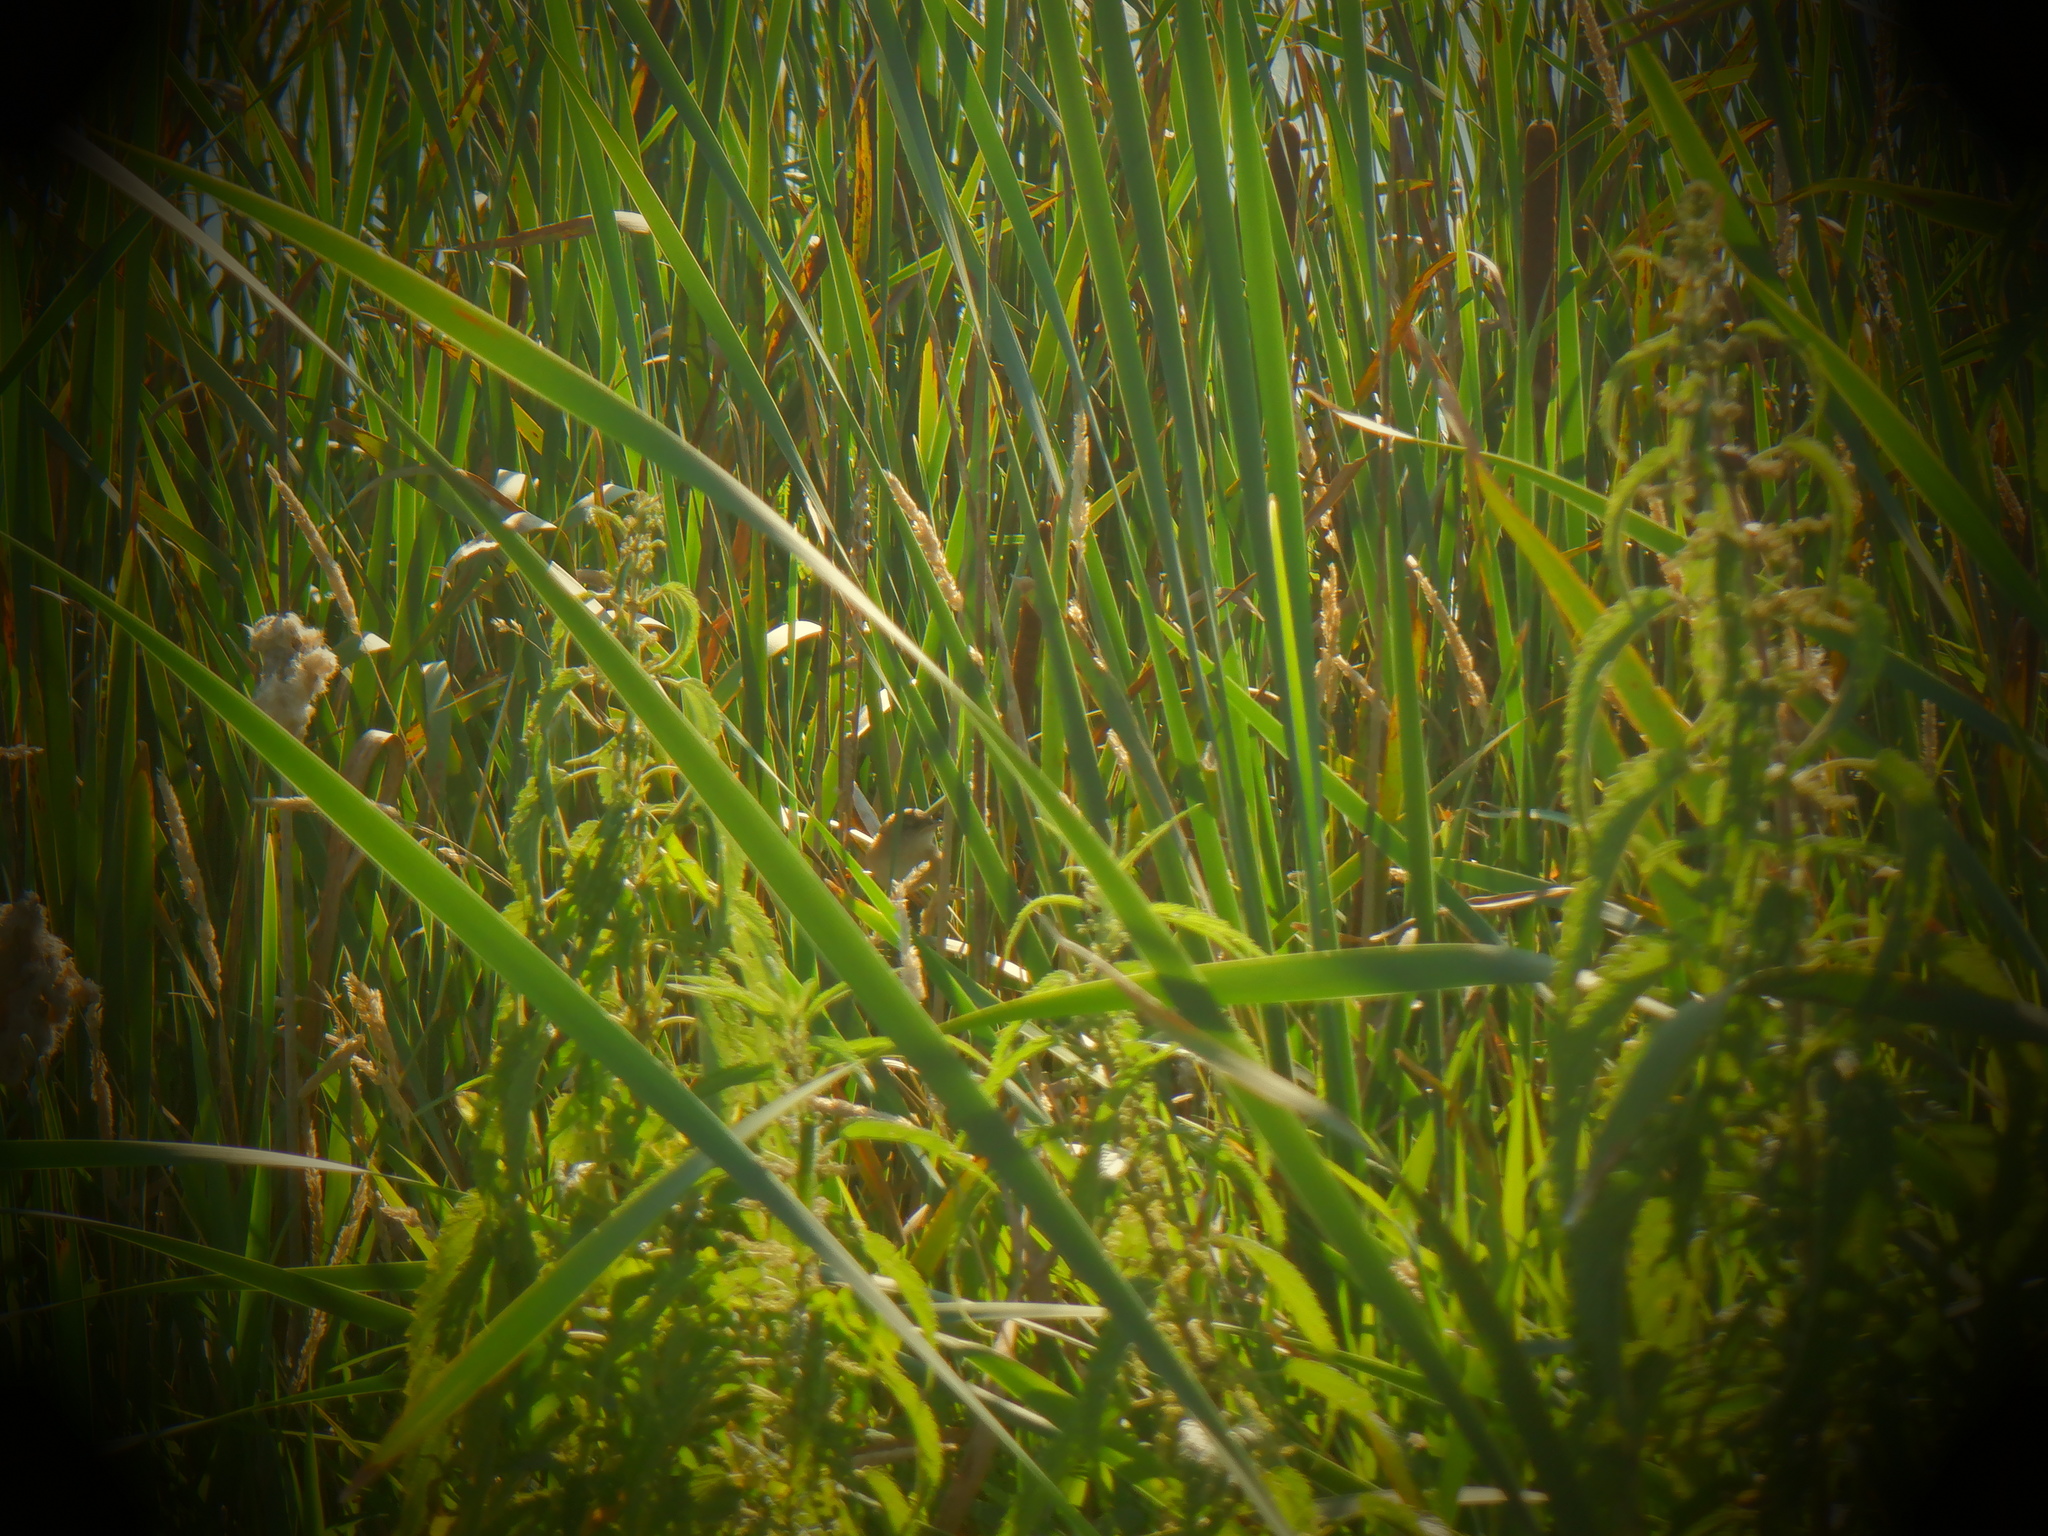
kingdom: Animalia
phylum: Chordata
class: Aves
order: Passeriformes
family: Troglodytidae
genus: Cistothorus
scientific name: Cistothorus palustris
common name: Marsh wren
